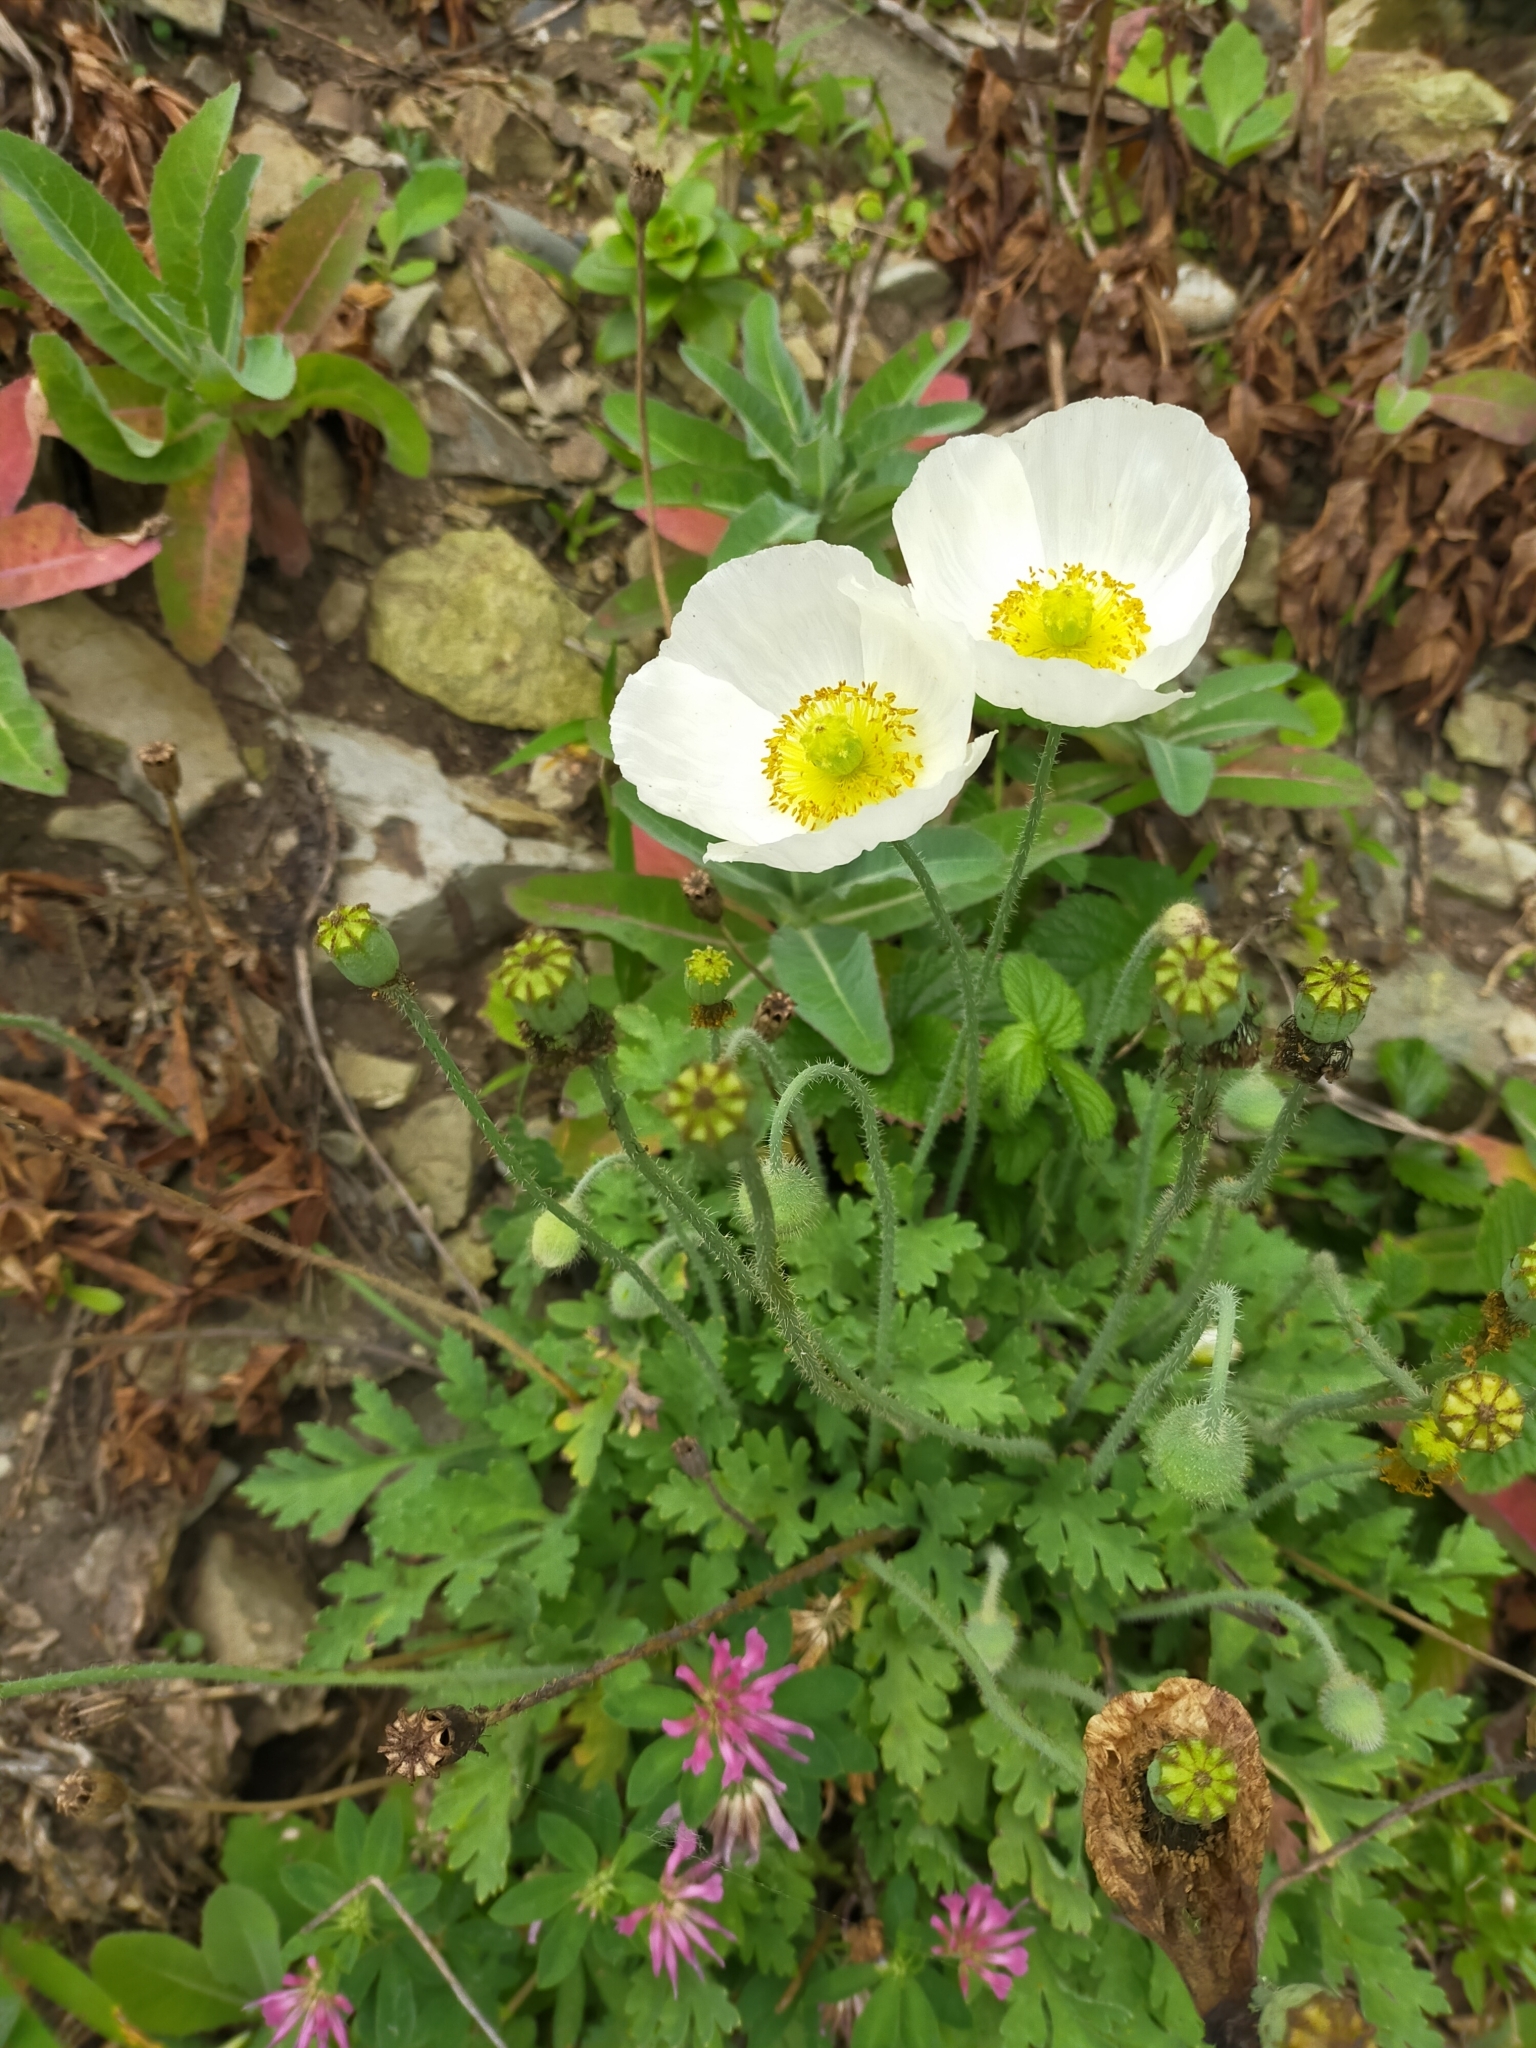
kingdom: Plantae
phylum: Tracheophyta
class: Magnoliopsida
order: Ranunculales
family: Papaveraceae
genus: Papaver
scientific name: Papaver sokolovskajae
